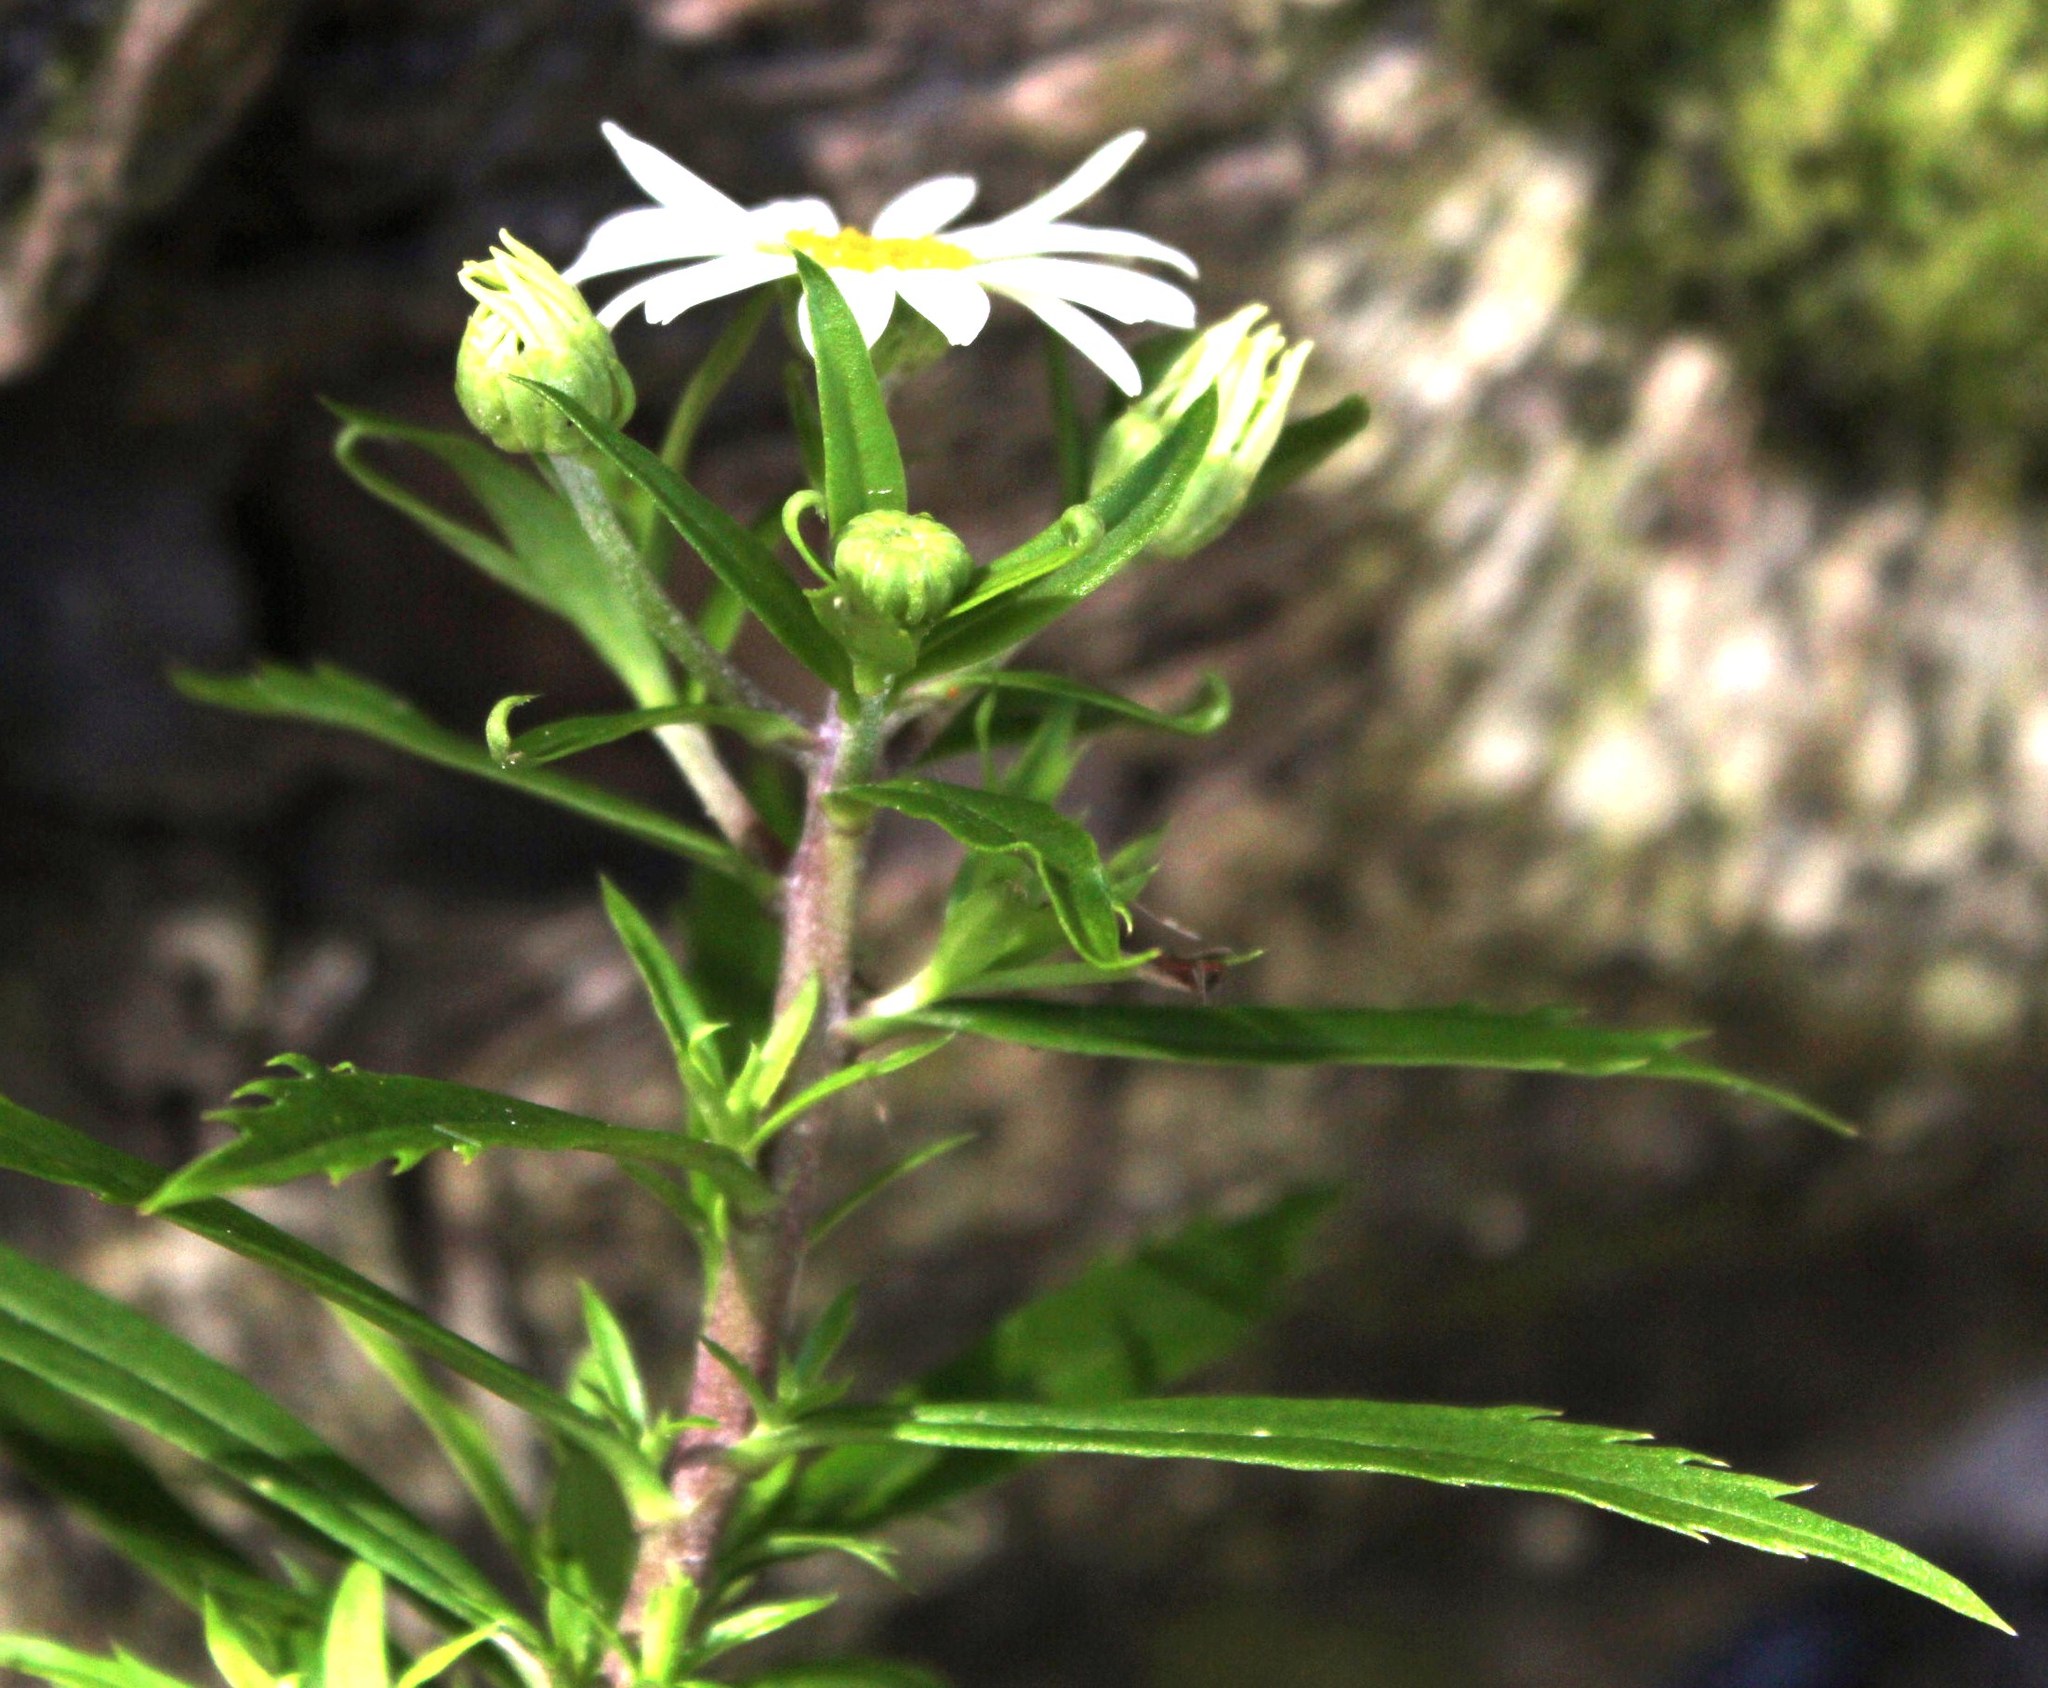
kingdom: Plantae
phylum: Tracheophyta
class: Magnoliopsida
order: Asterales
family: Asteraceae
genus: Osmitopsis
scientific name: Osmitopsis osmitoides
